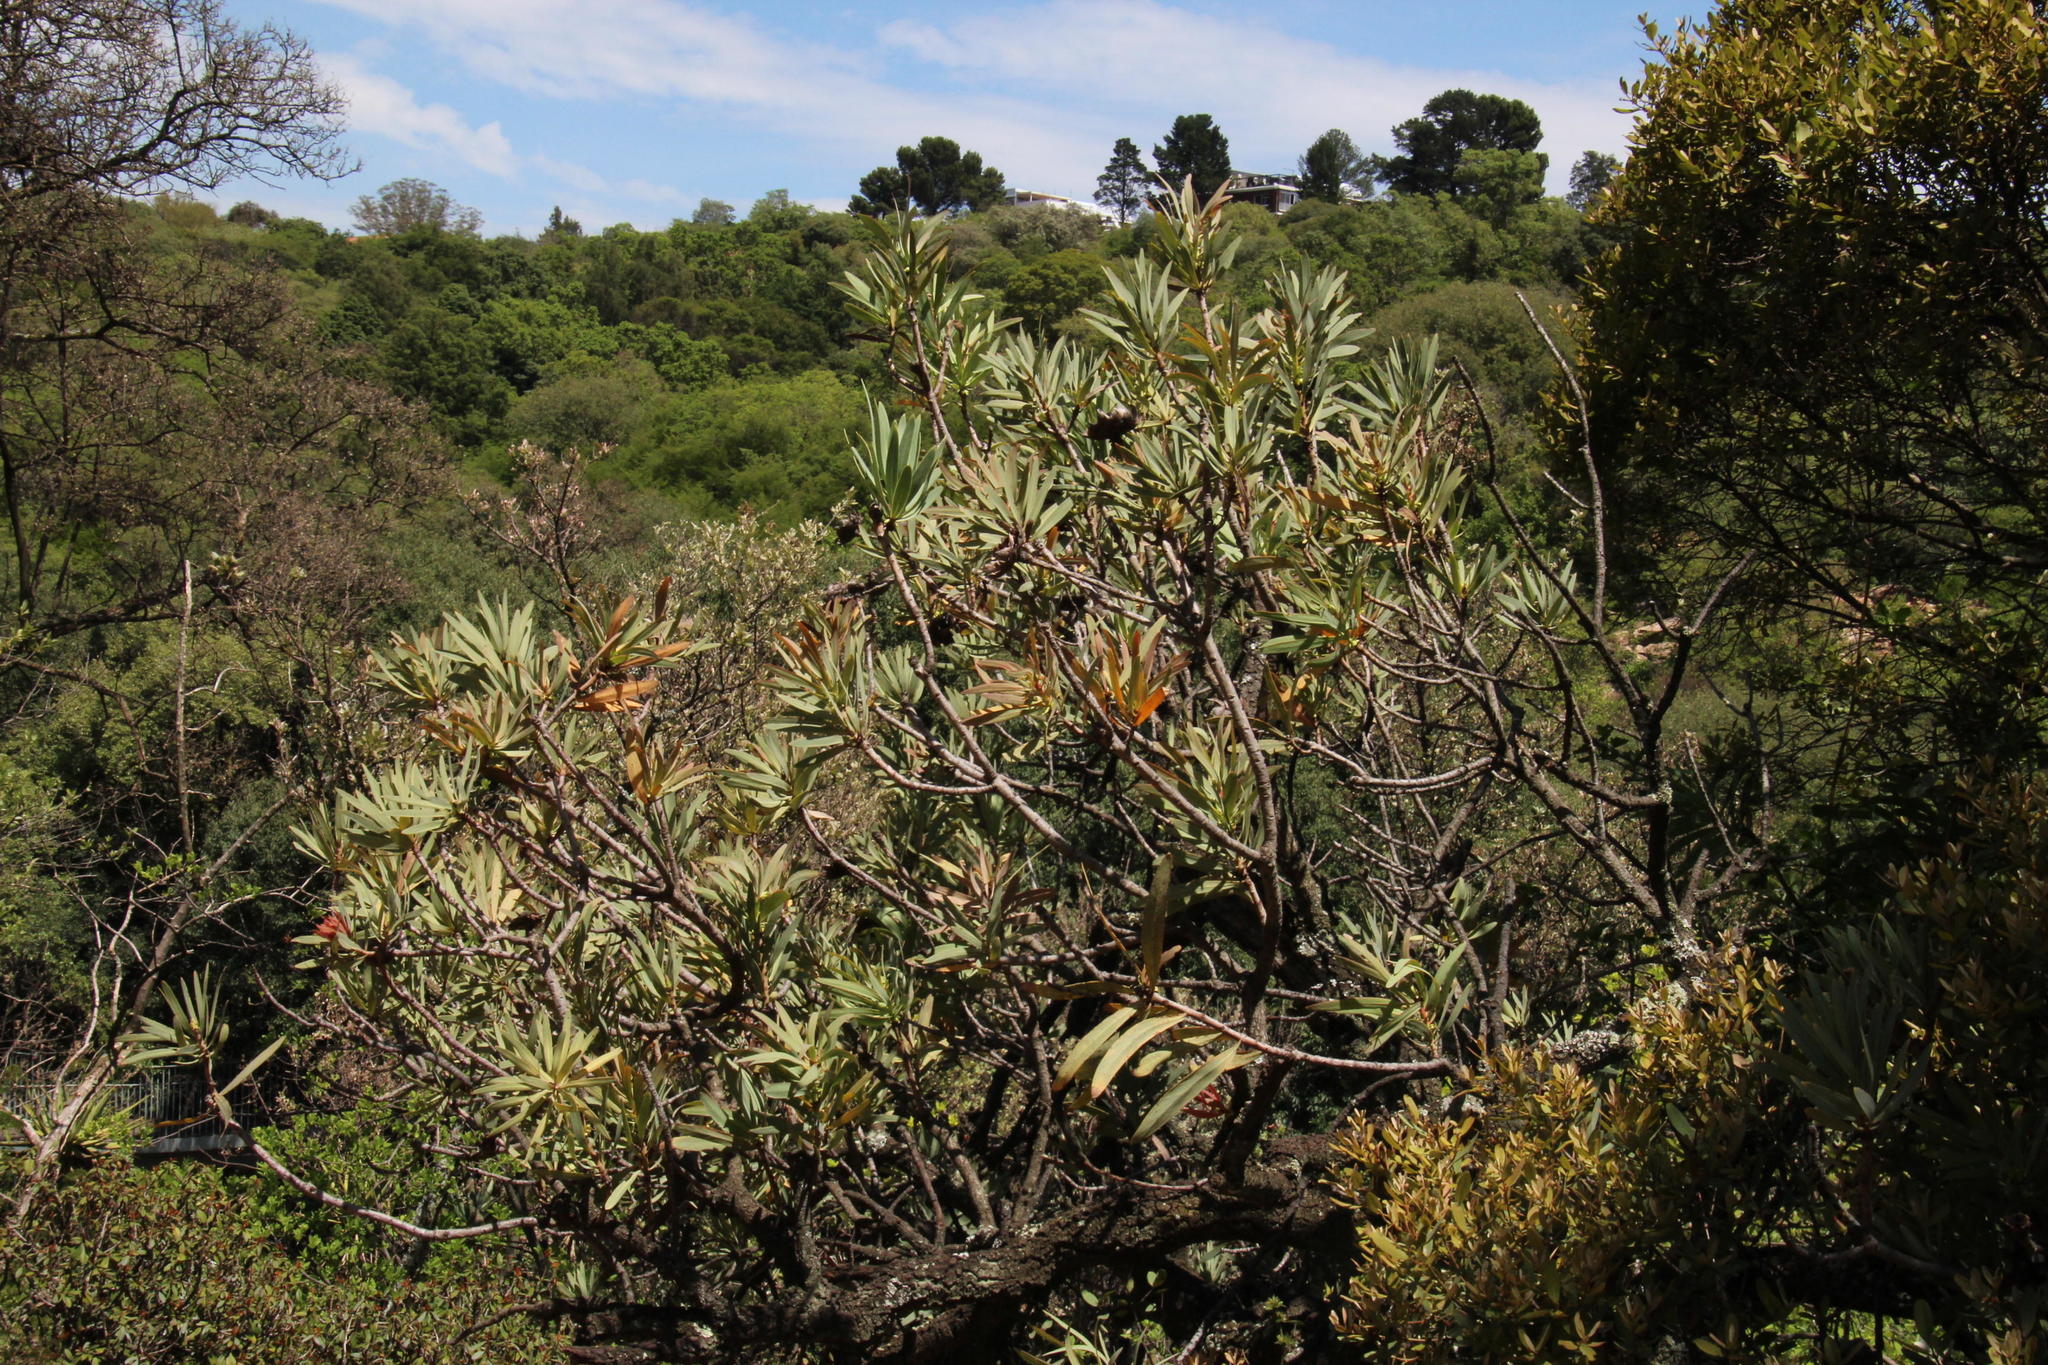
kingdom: Plantae
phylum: Tracheophyta
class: Magnoliopsida
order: Proteales
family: Proteaceae
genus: Protea
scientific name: Protea caffra
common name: Common sugarbush
